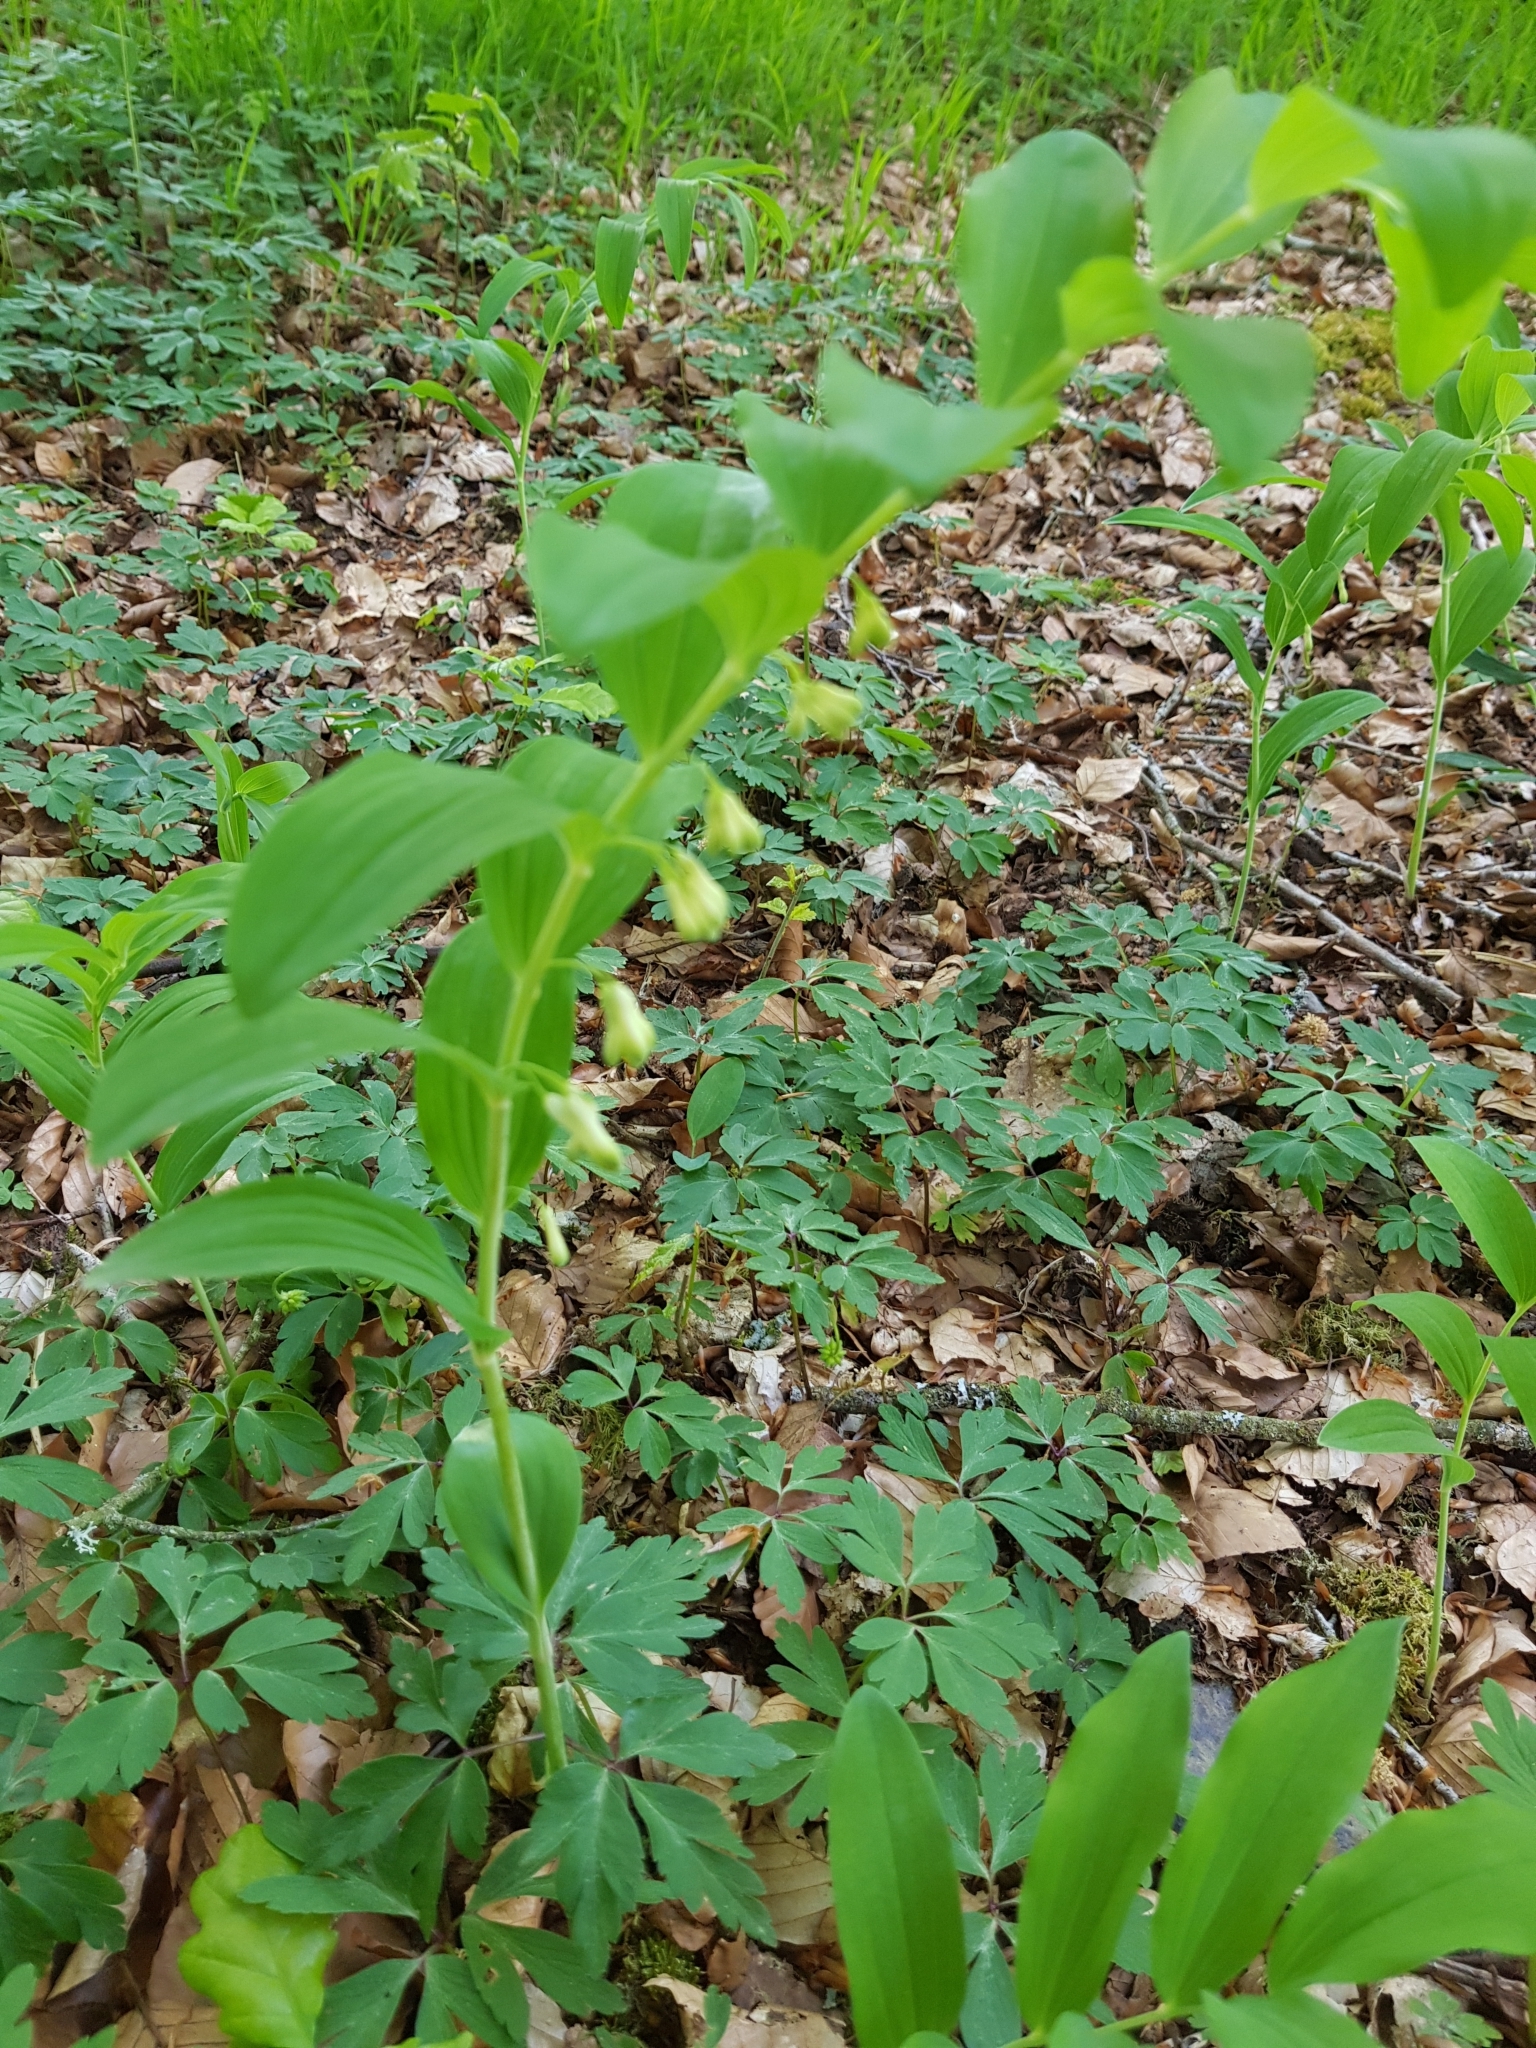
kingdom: Plantae
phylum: Tracheophyta
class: Liliopsida
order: Asparagales
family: Asparagaceae
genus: Polygonatum
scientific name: Polygonatum multiflorum
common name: Solomon's-seal
